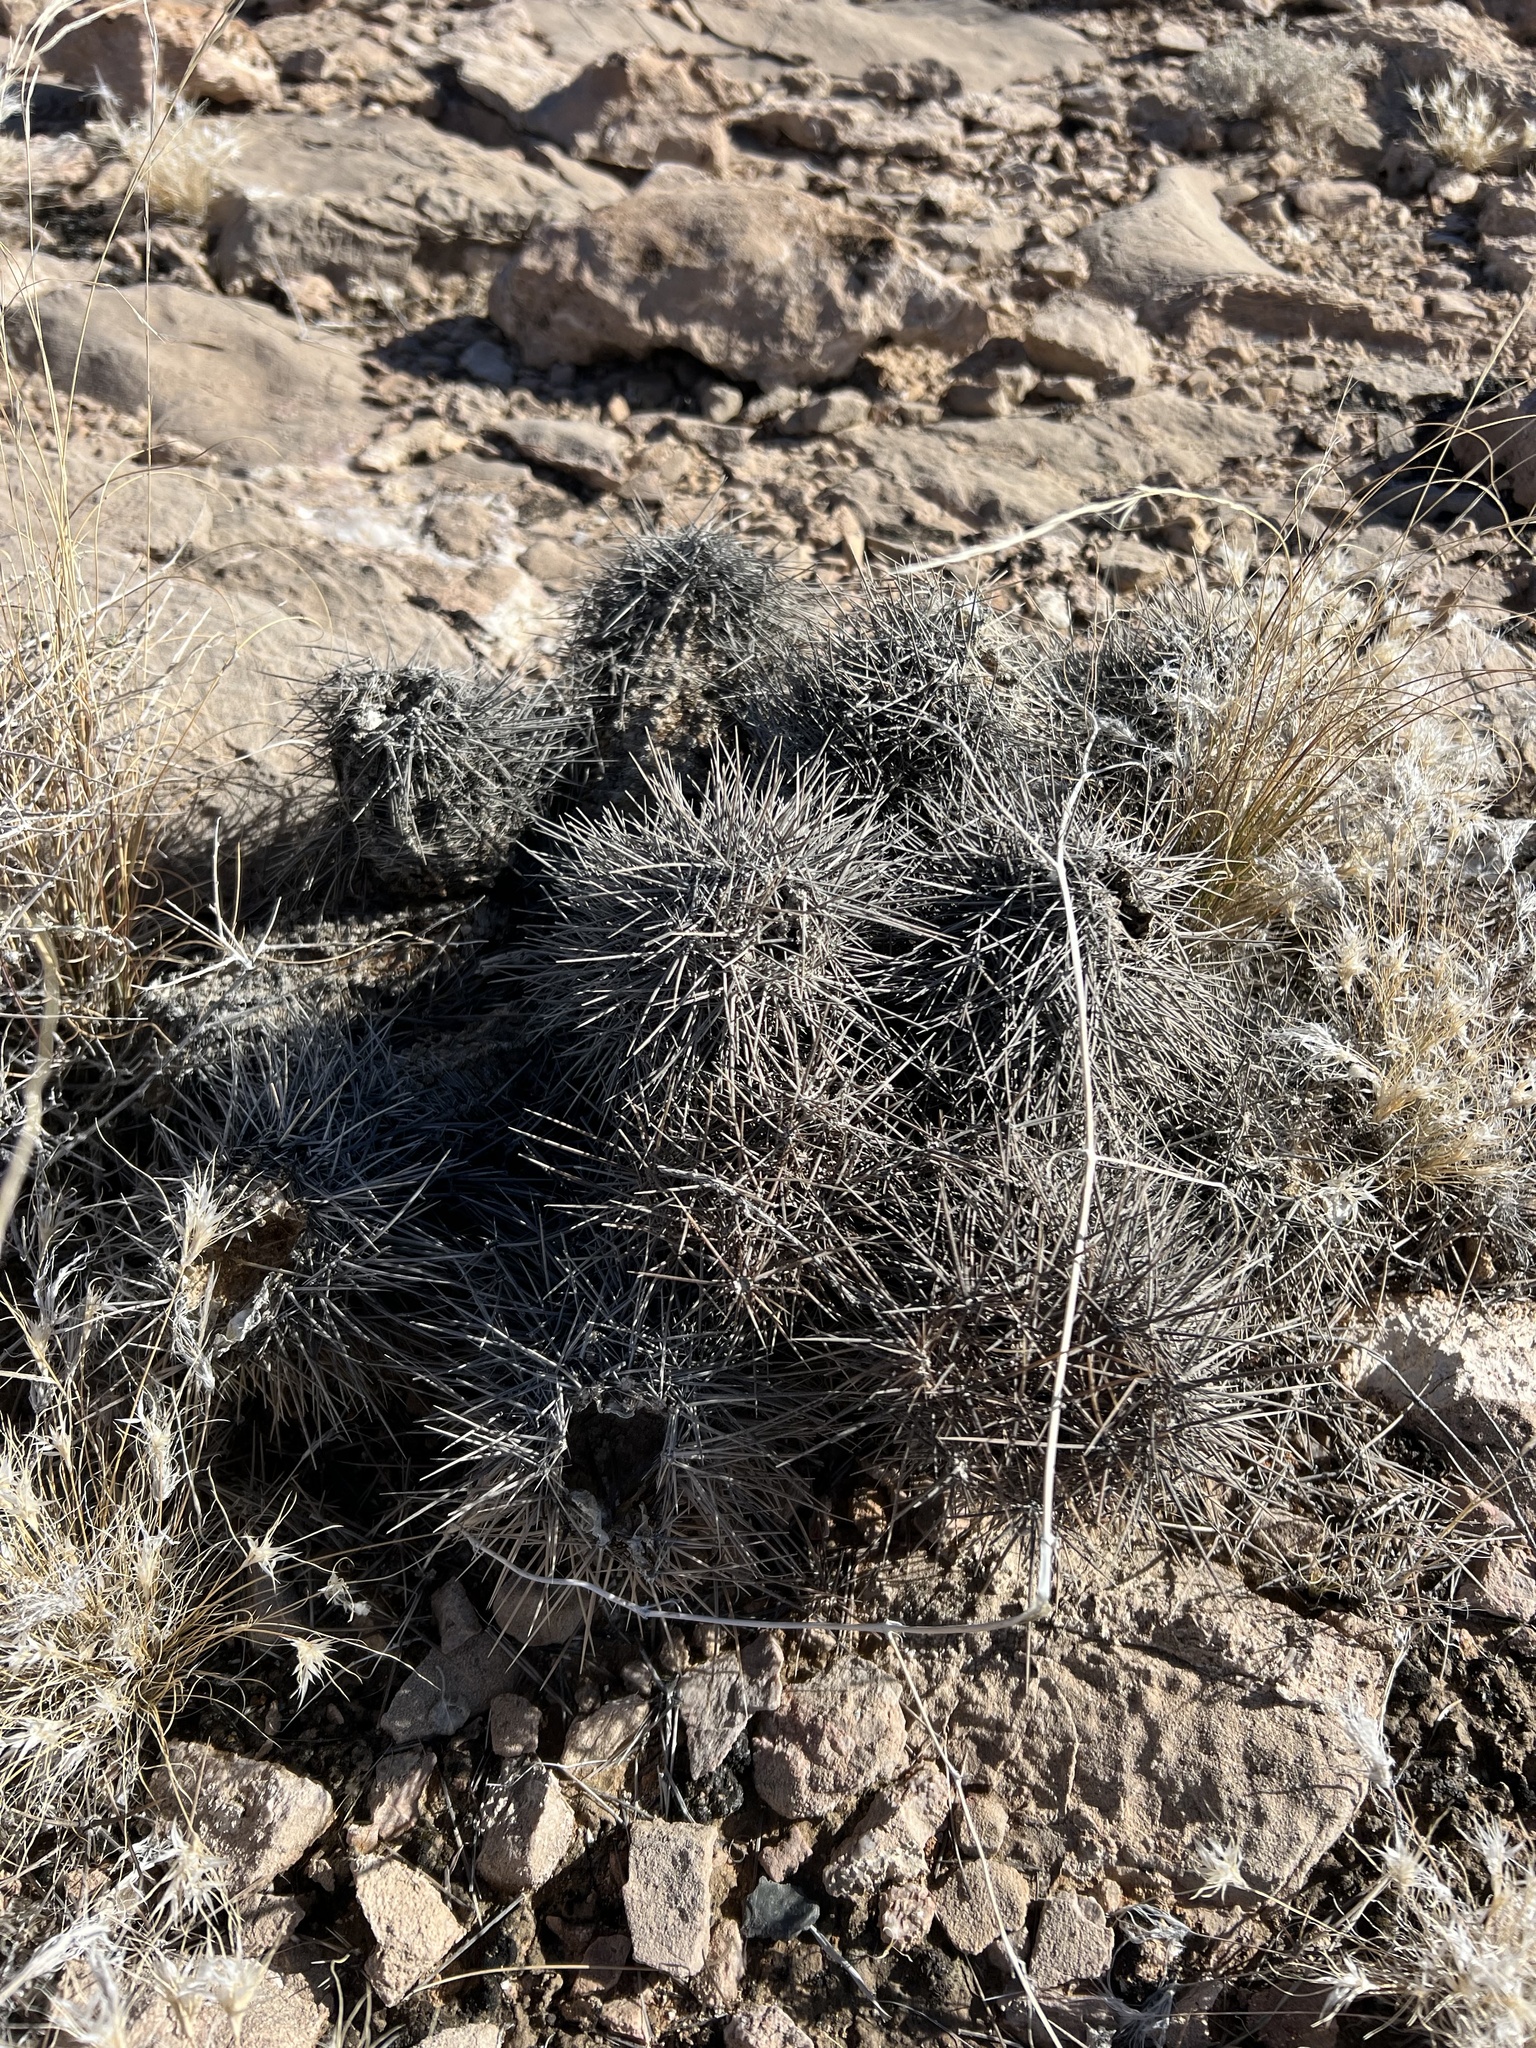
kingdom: Plantae
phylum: Tracheophyta
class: Magnoliopsida
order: Caryophyllales
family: Cactaceae
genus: Echinocereus
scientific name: Echinocereus engelmannii
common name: Engelmann's hedgehog cactus
